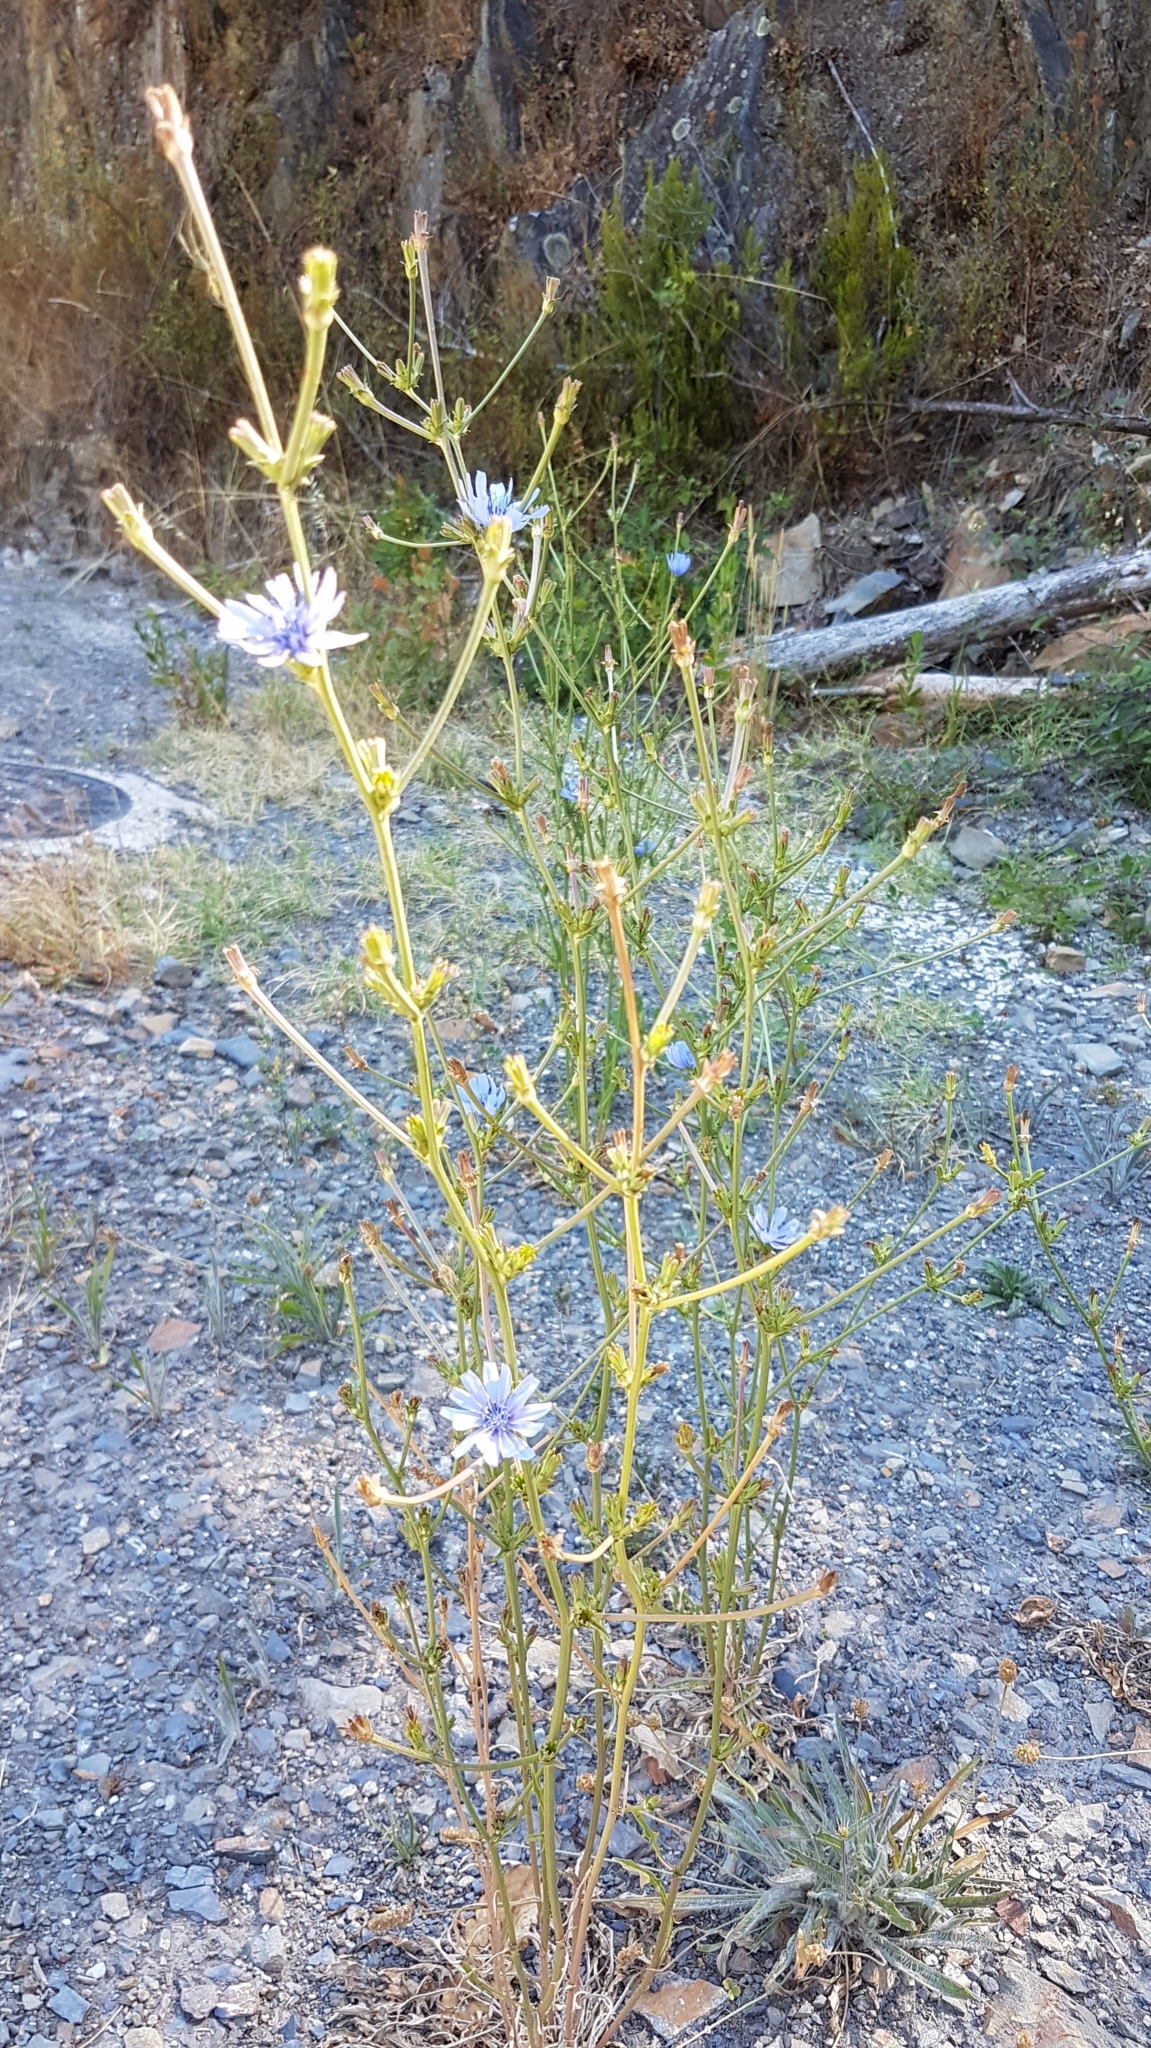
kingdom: Plantae
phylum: Tracheophyta
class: Magnoliopsida
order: Asterales
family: Asteraceae
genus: Cichorium
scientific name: Cichorium intybus
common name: Chicory
